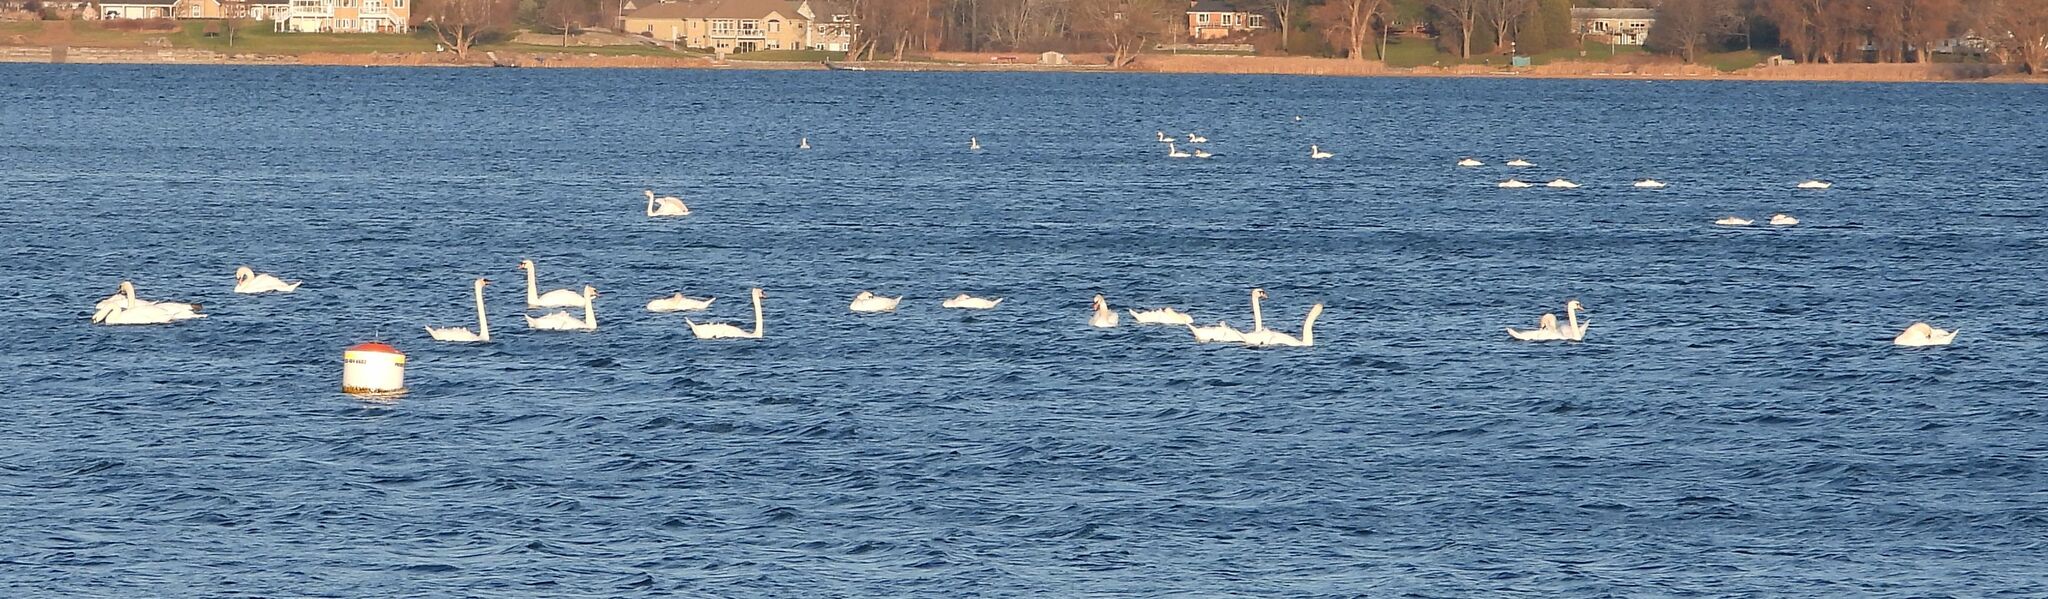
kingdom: Animalia
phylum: Chordata
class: Aves
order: Anseriformes
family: Anatidae
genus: Cygnus
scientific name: Cygnus olor
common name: Mute swan
